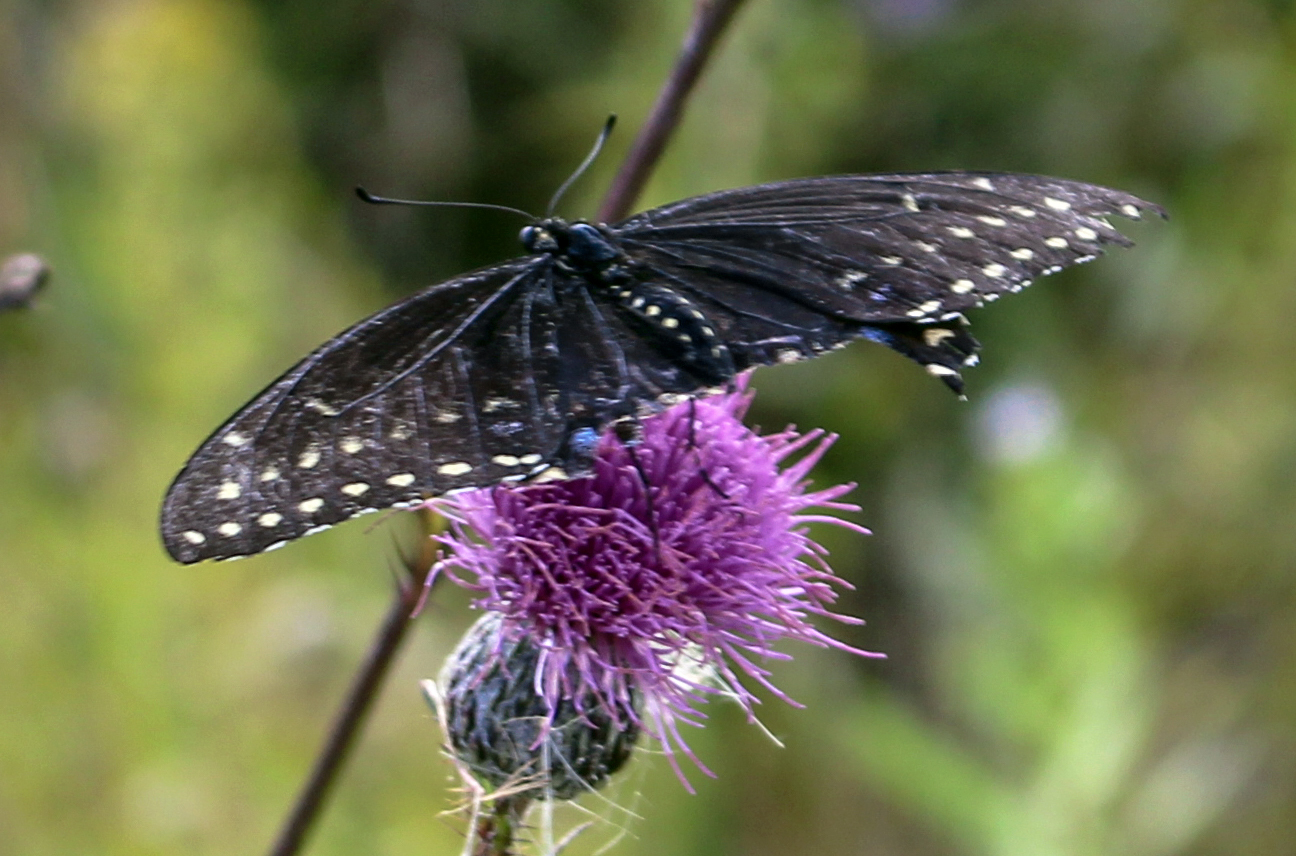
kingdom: Animalia
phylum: Arthropoda
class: Insecta
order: Lepidoptera
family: Papilionidae
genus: Papilio
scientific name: Papilio polyxenes
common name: Black swallowtail
